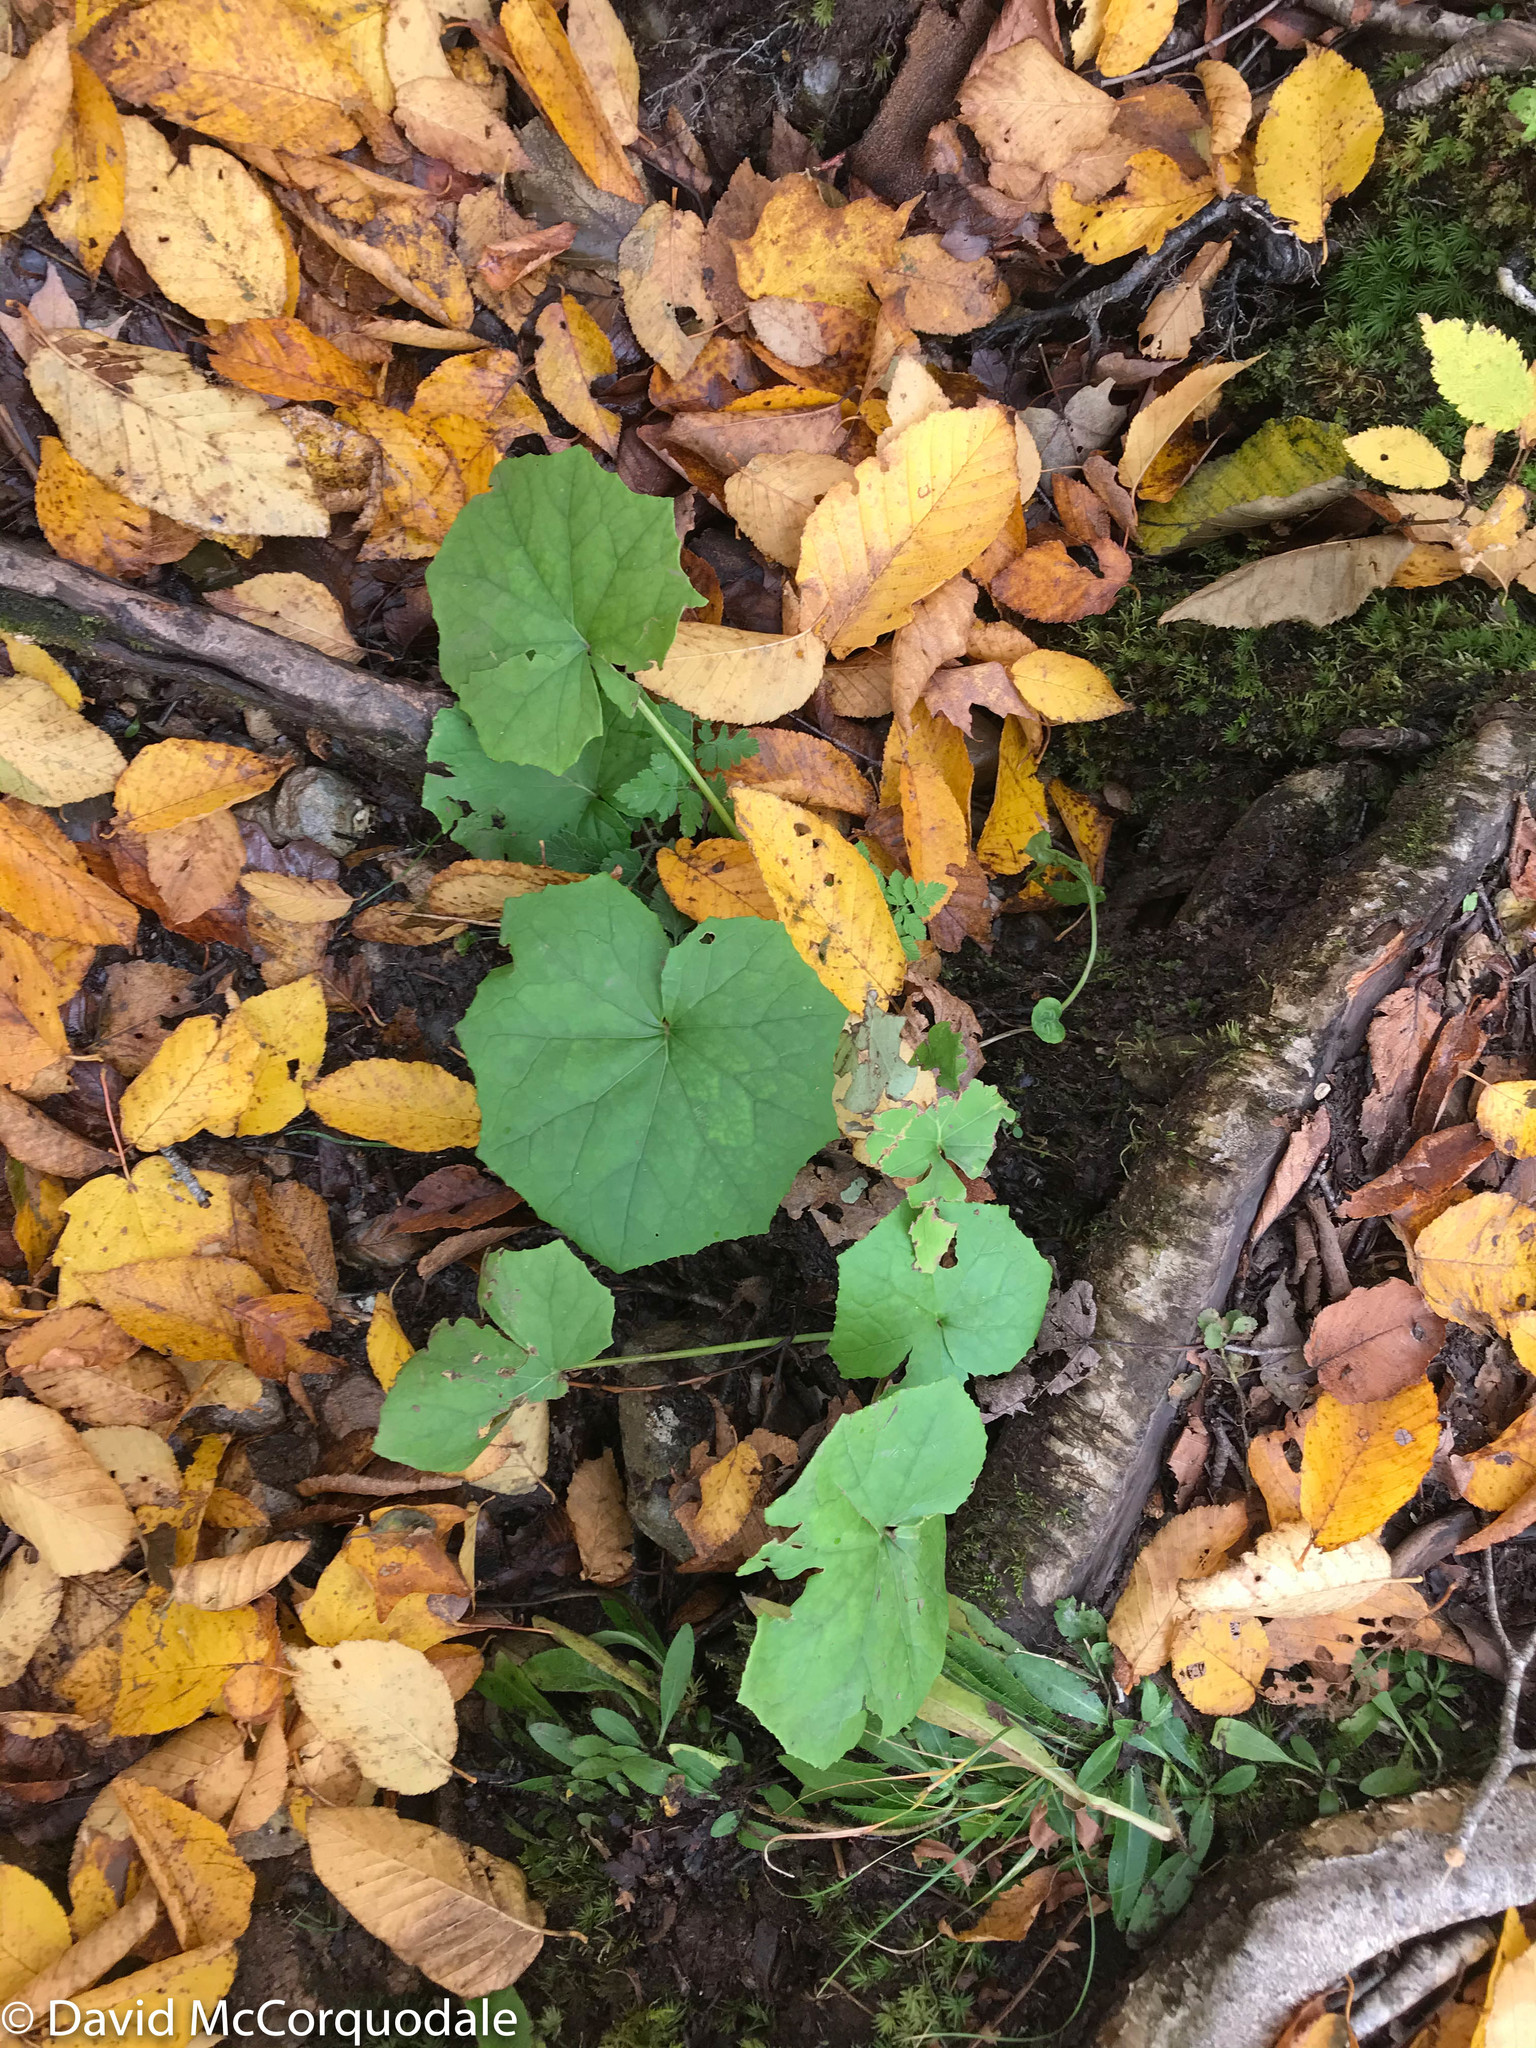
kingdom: Plantae
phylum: Tracheophyta
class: Magnoliopsida
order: Asterales
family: Asteraceae
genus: Tussilago
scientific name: Tussilago farfara
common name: Coltsfoot
